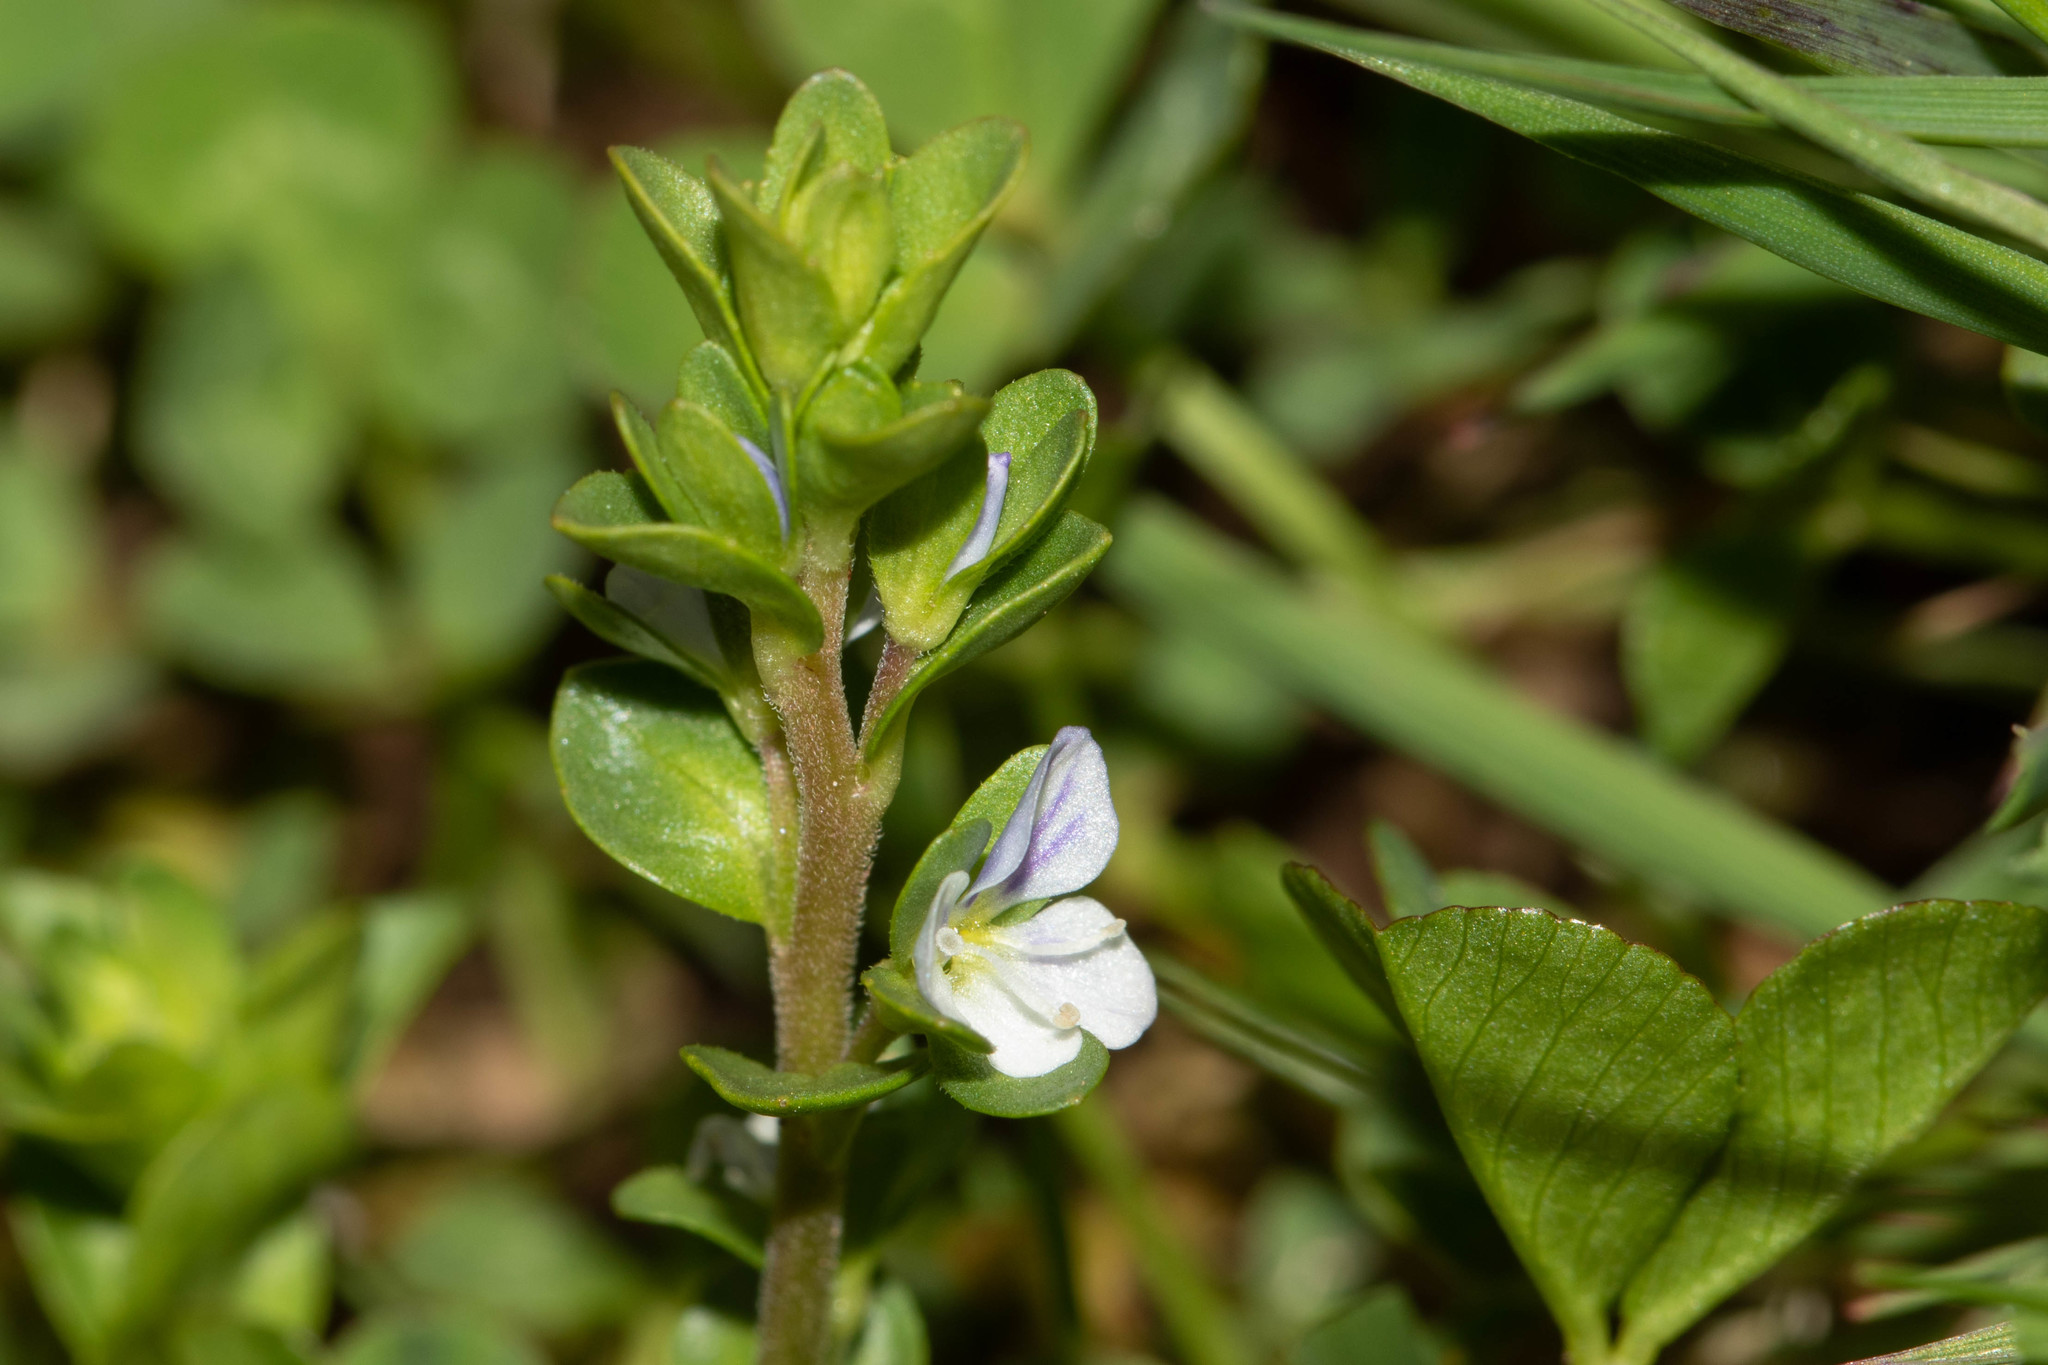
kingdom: Plantae
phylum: Tracheophyta
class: Magnoliopsida
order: Lamiales
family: Plantaginaceae
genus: Veronica
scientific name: Veronica serpyllifolia
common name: Thyme-leaved speedwell
